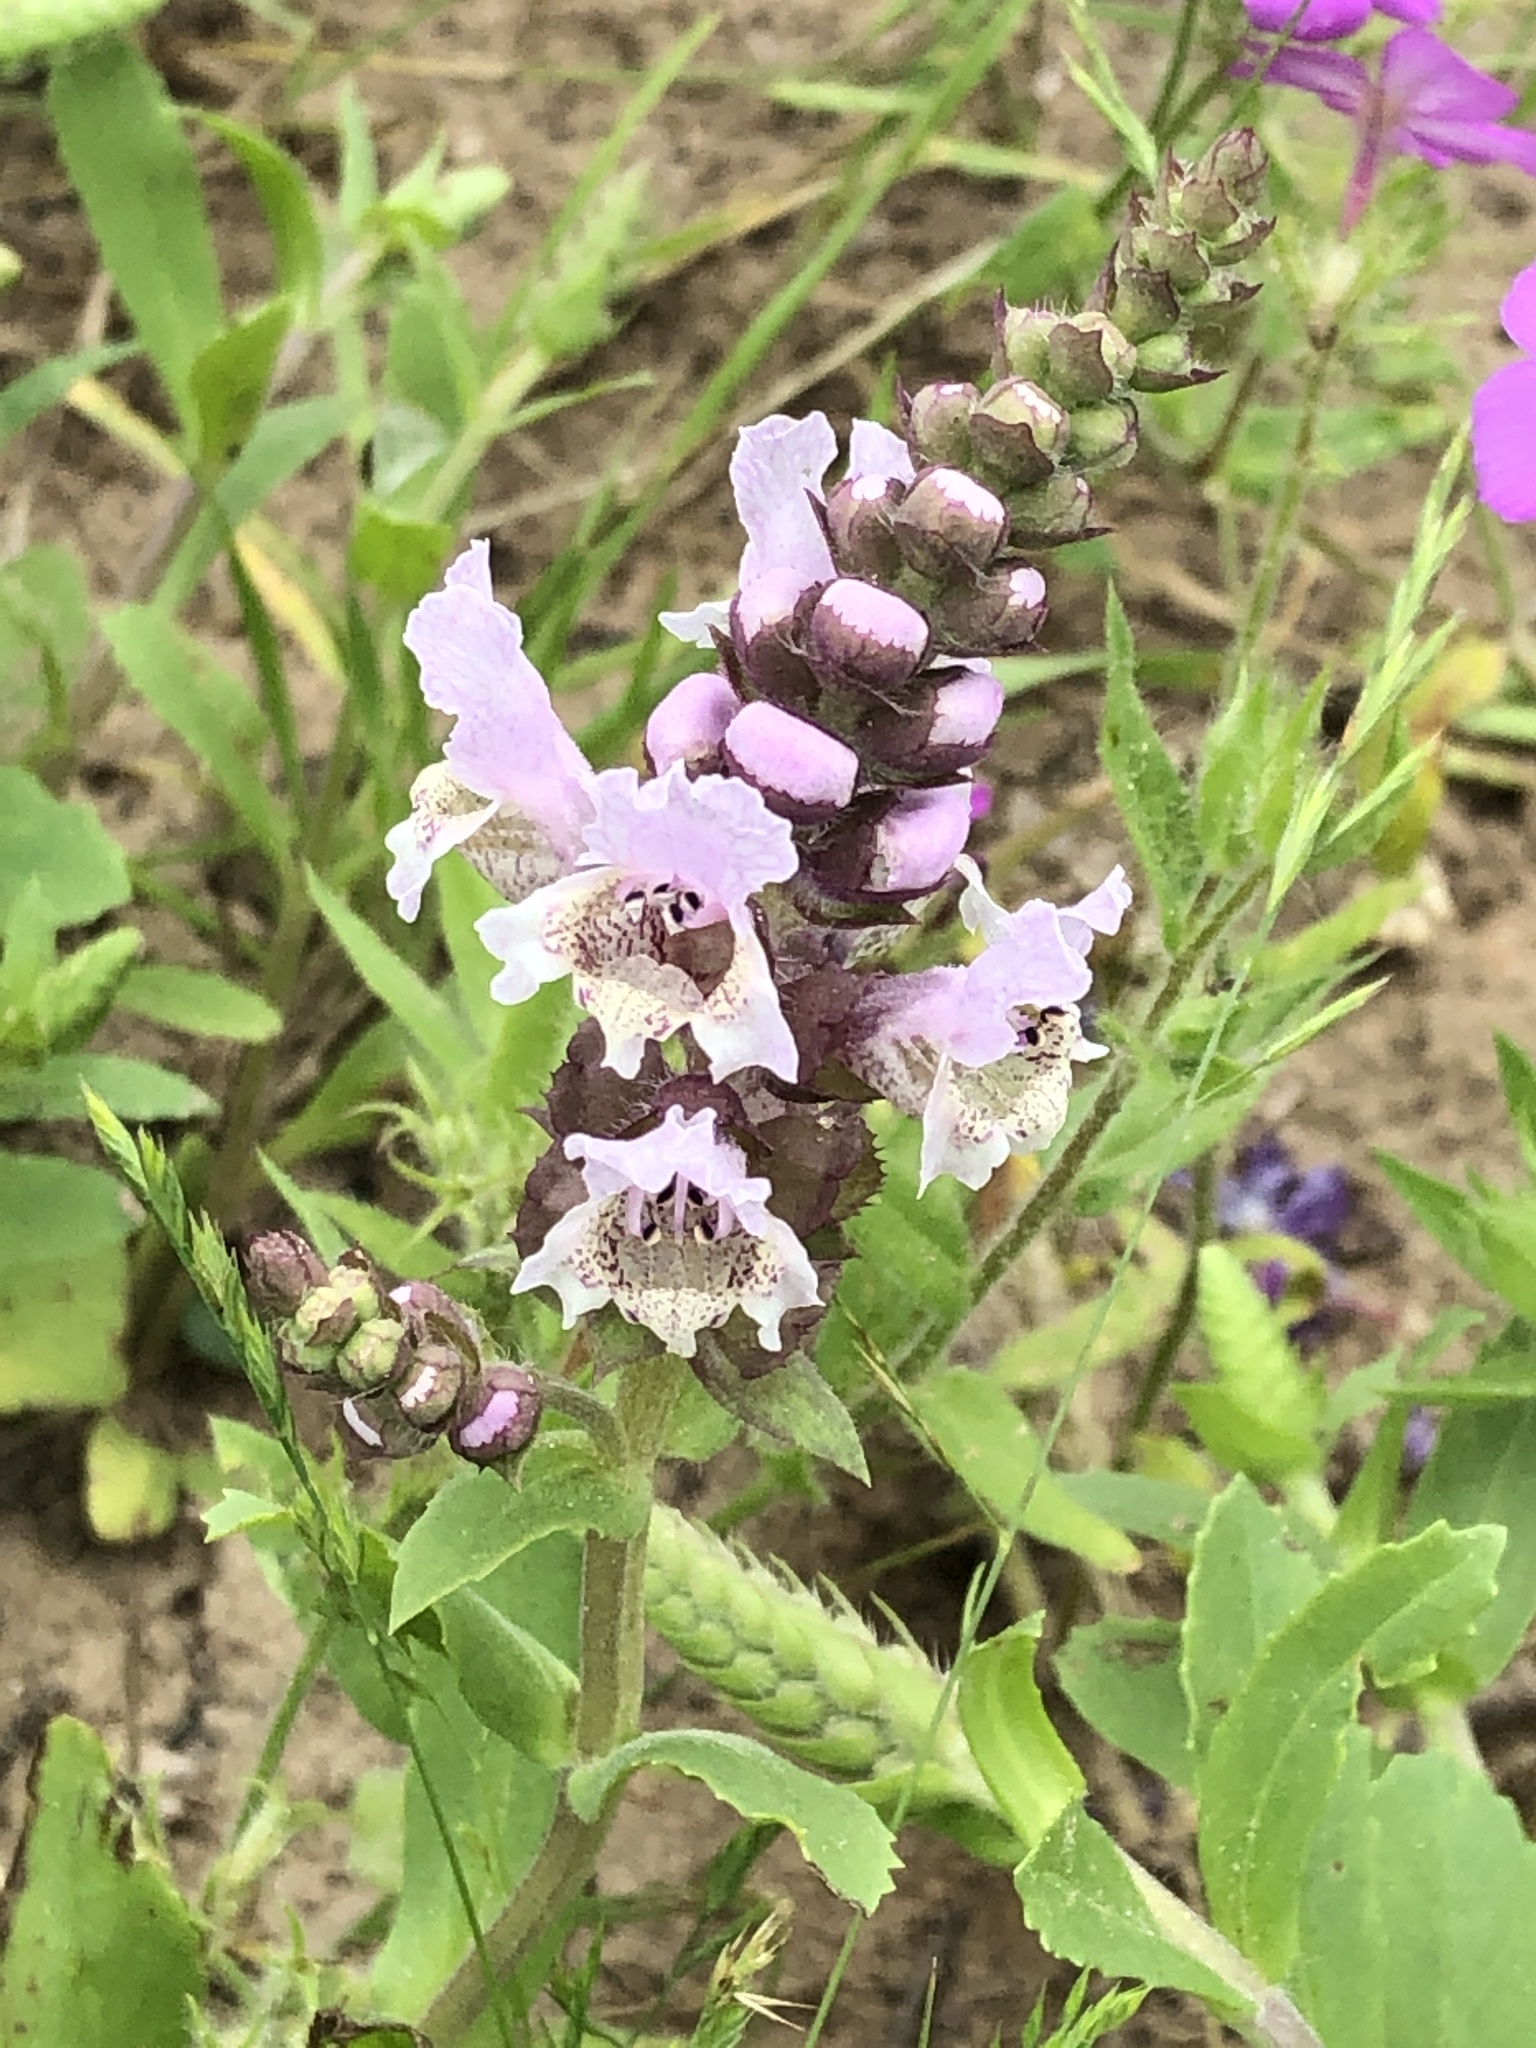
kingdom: Plantae
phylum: Tracheophyta
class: Magnoliopsida
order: Lamiales
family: Lamiaceae
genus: Brazoria
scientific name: Brazoria truncata
